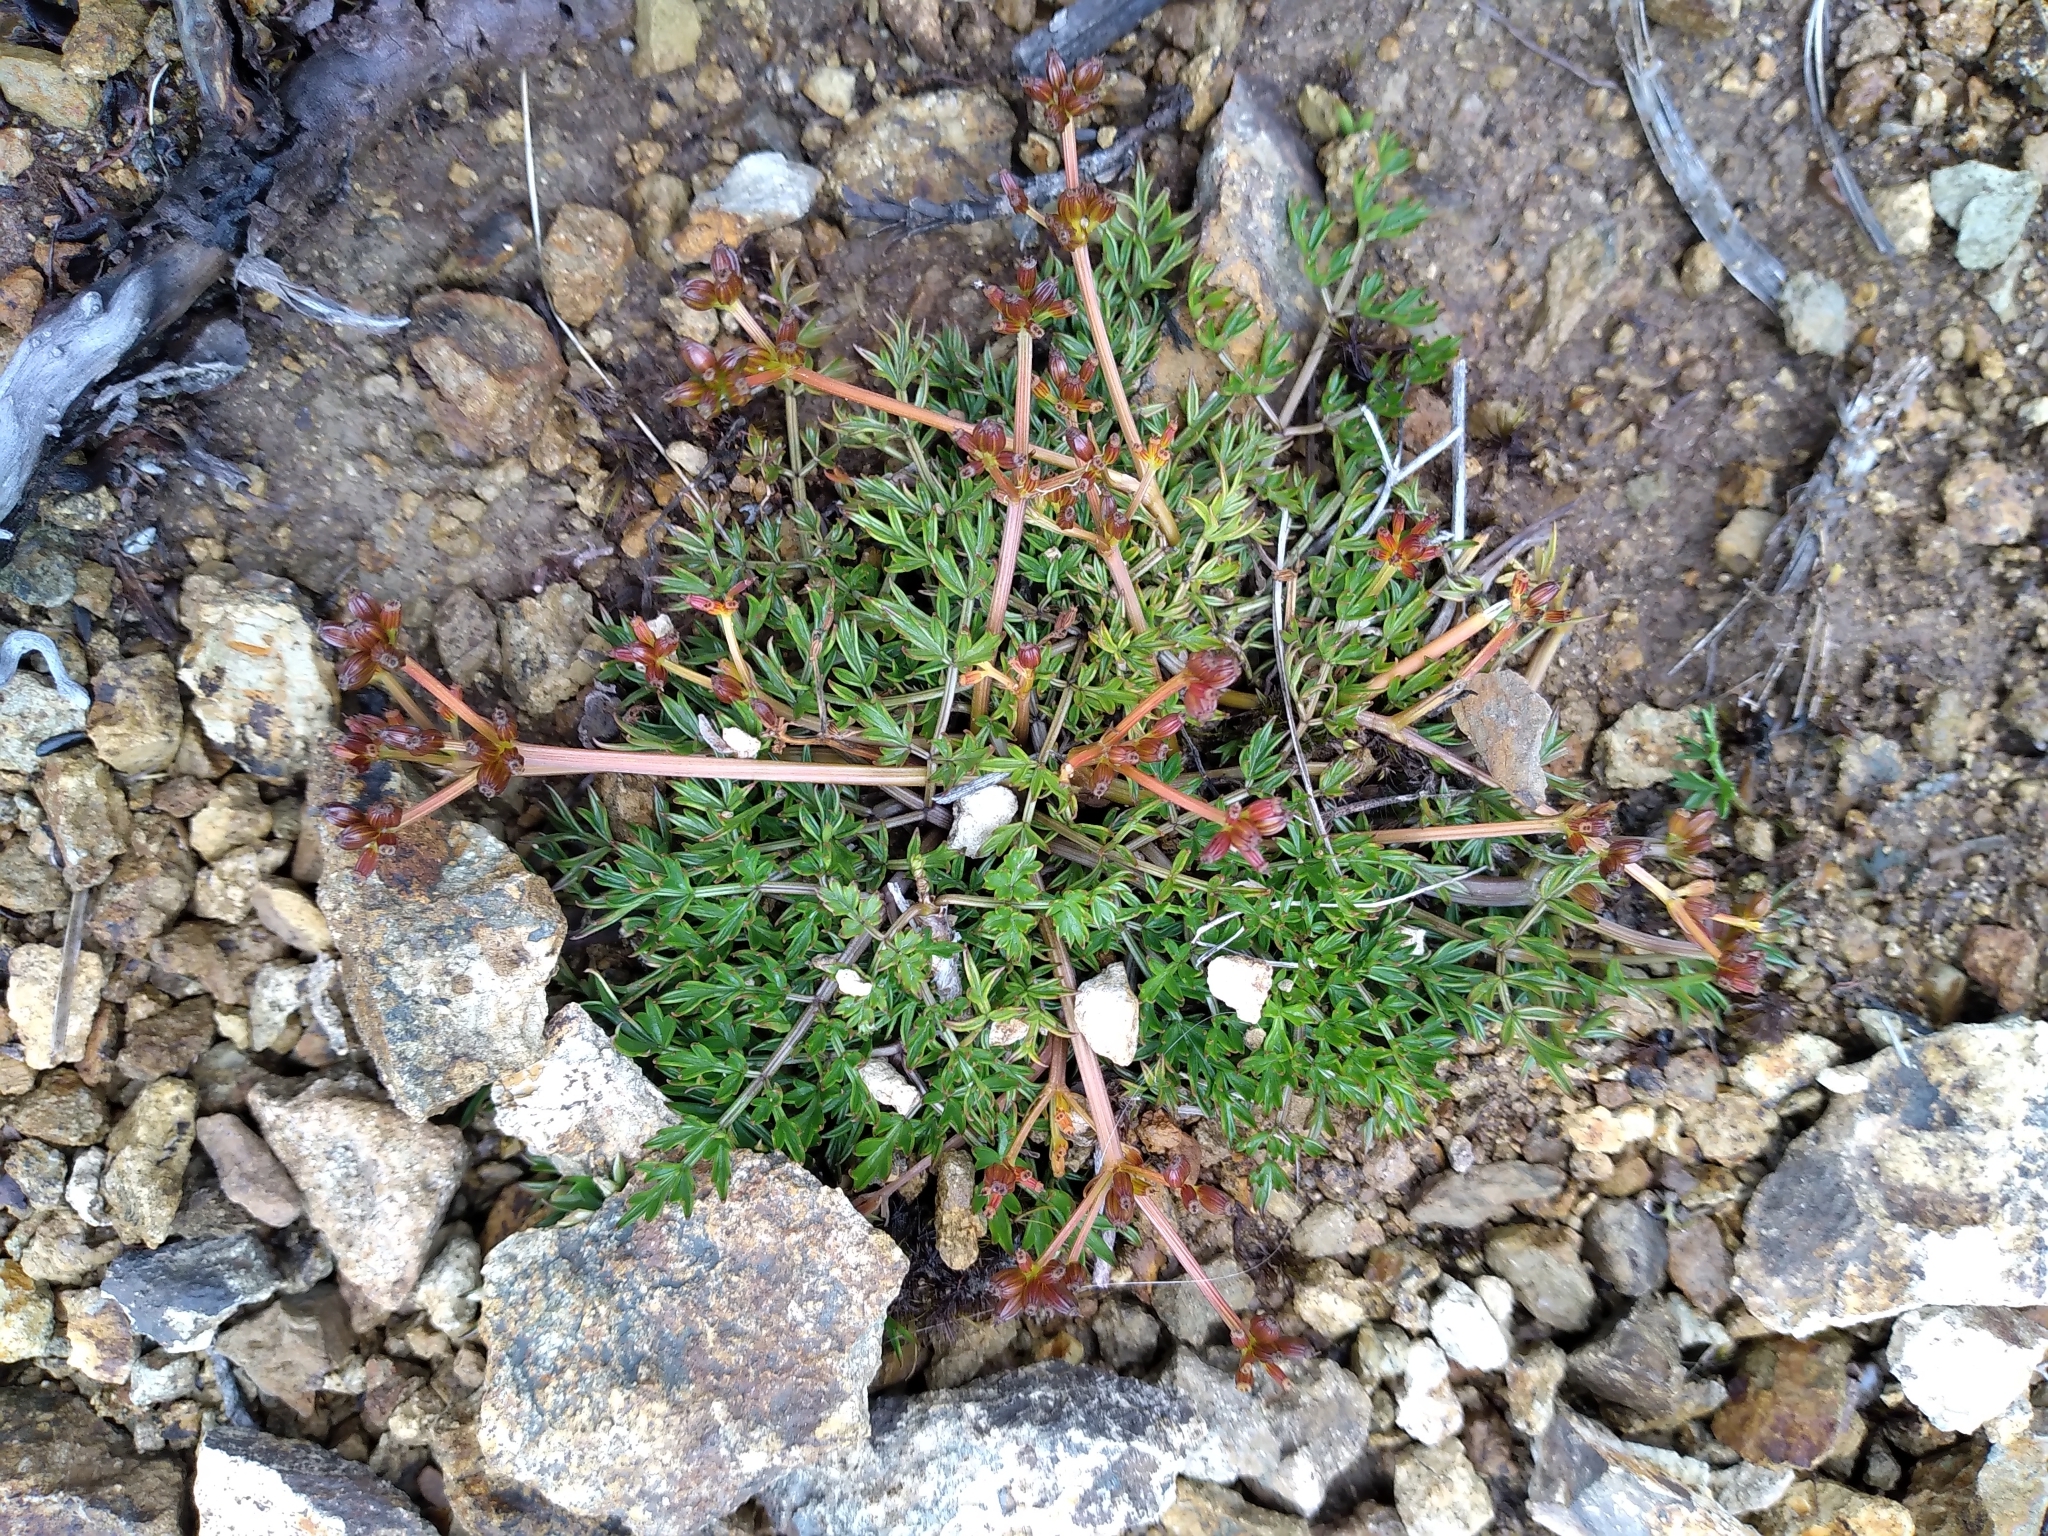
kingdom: Plantae
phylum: Tracheophyta
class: Magnoliopsida
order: Apiales
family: Apiaceae
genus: Anisotome
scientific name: Anisotome deltoidea
